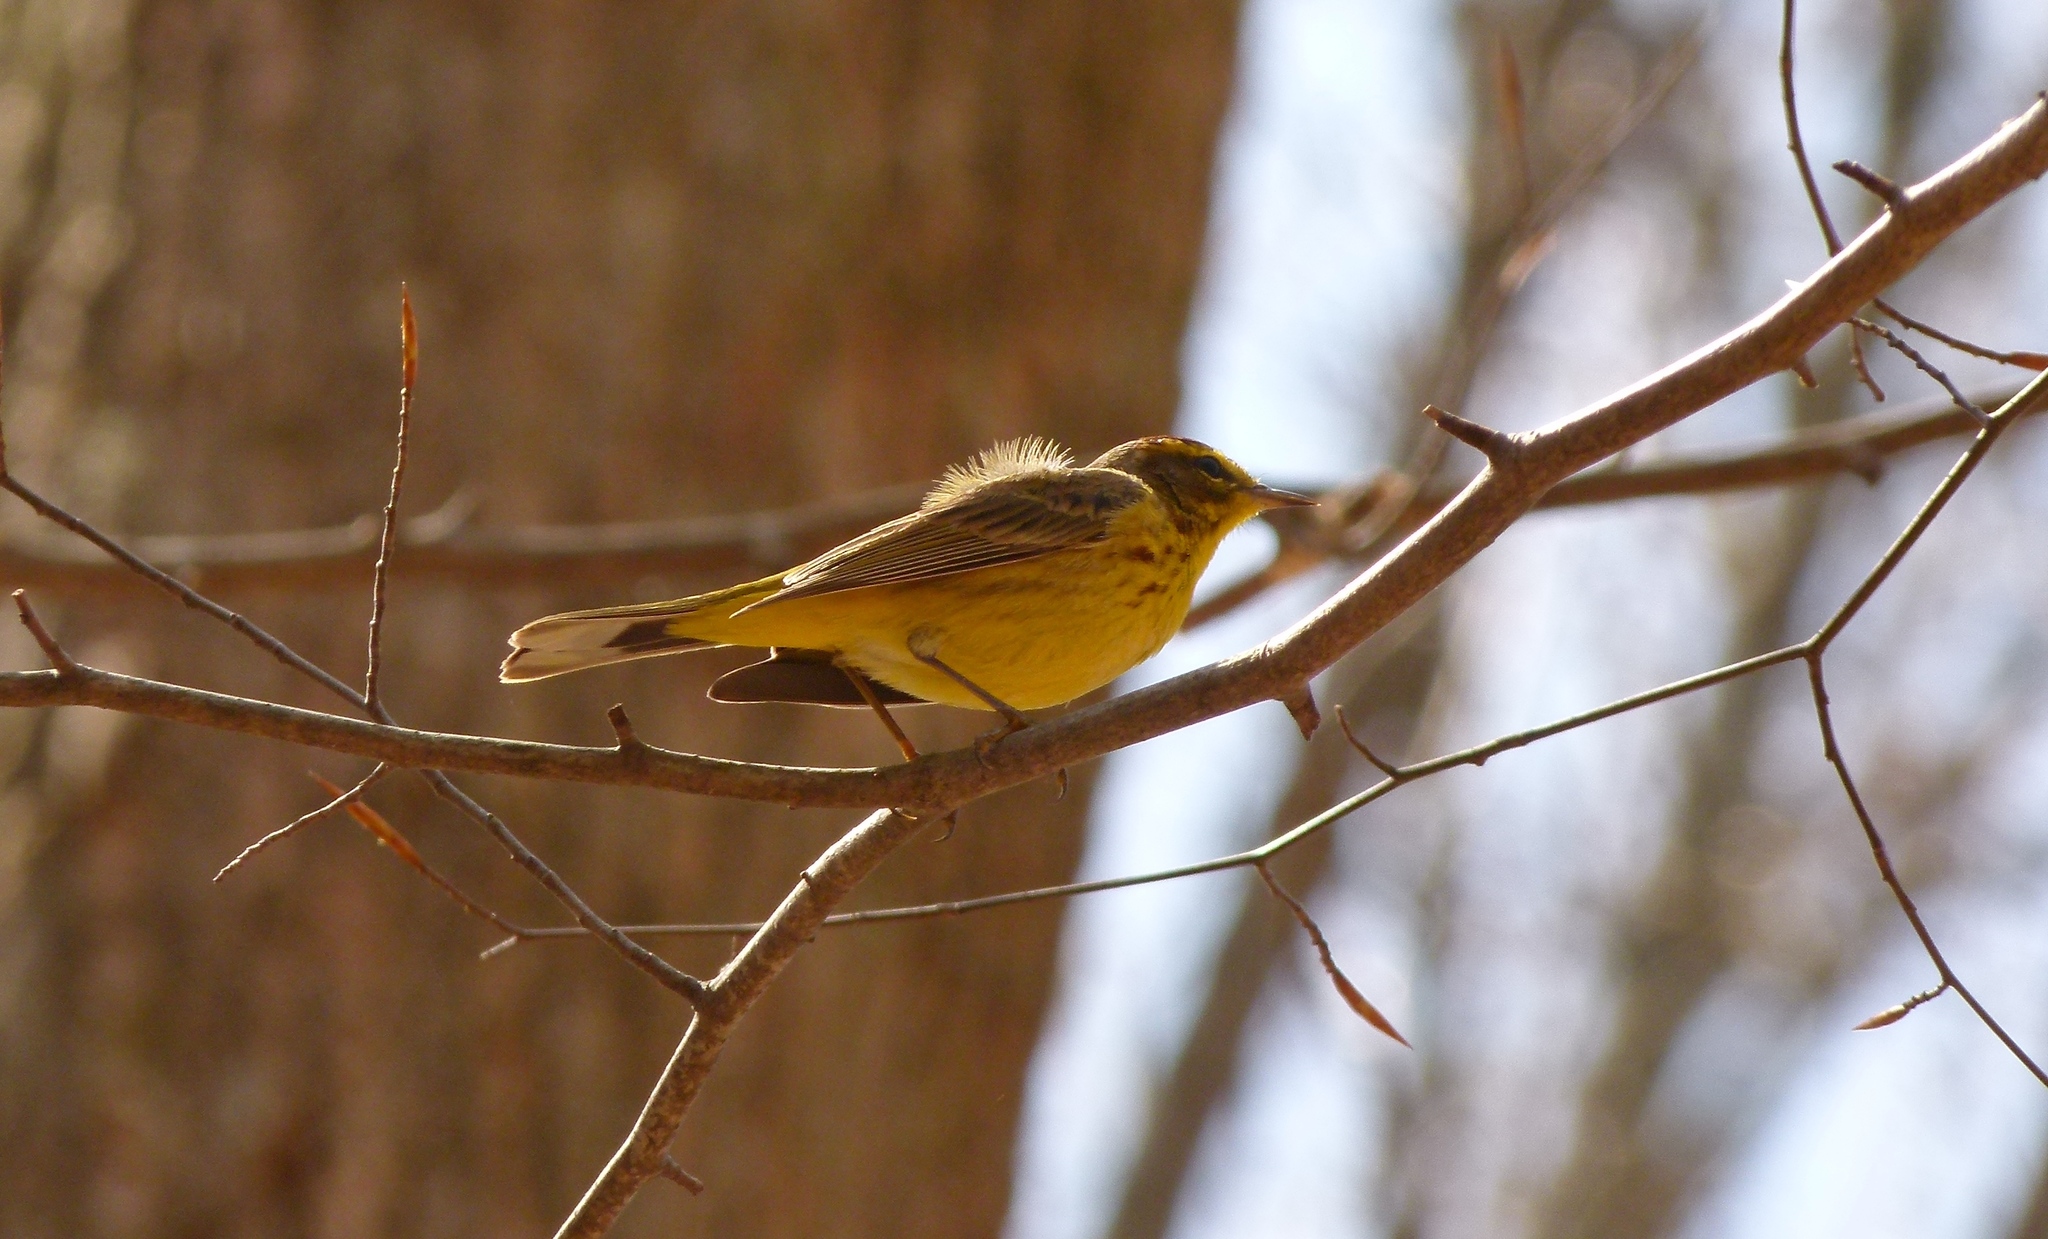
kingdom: Animalia
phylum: Chordata
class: Aves
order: Passeriformes
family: Parulidae
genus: Setophaga
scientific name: Setophaga palmarum
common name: Palm warbler
